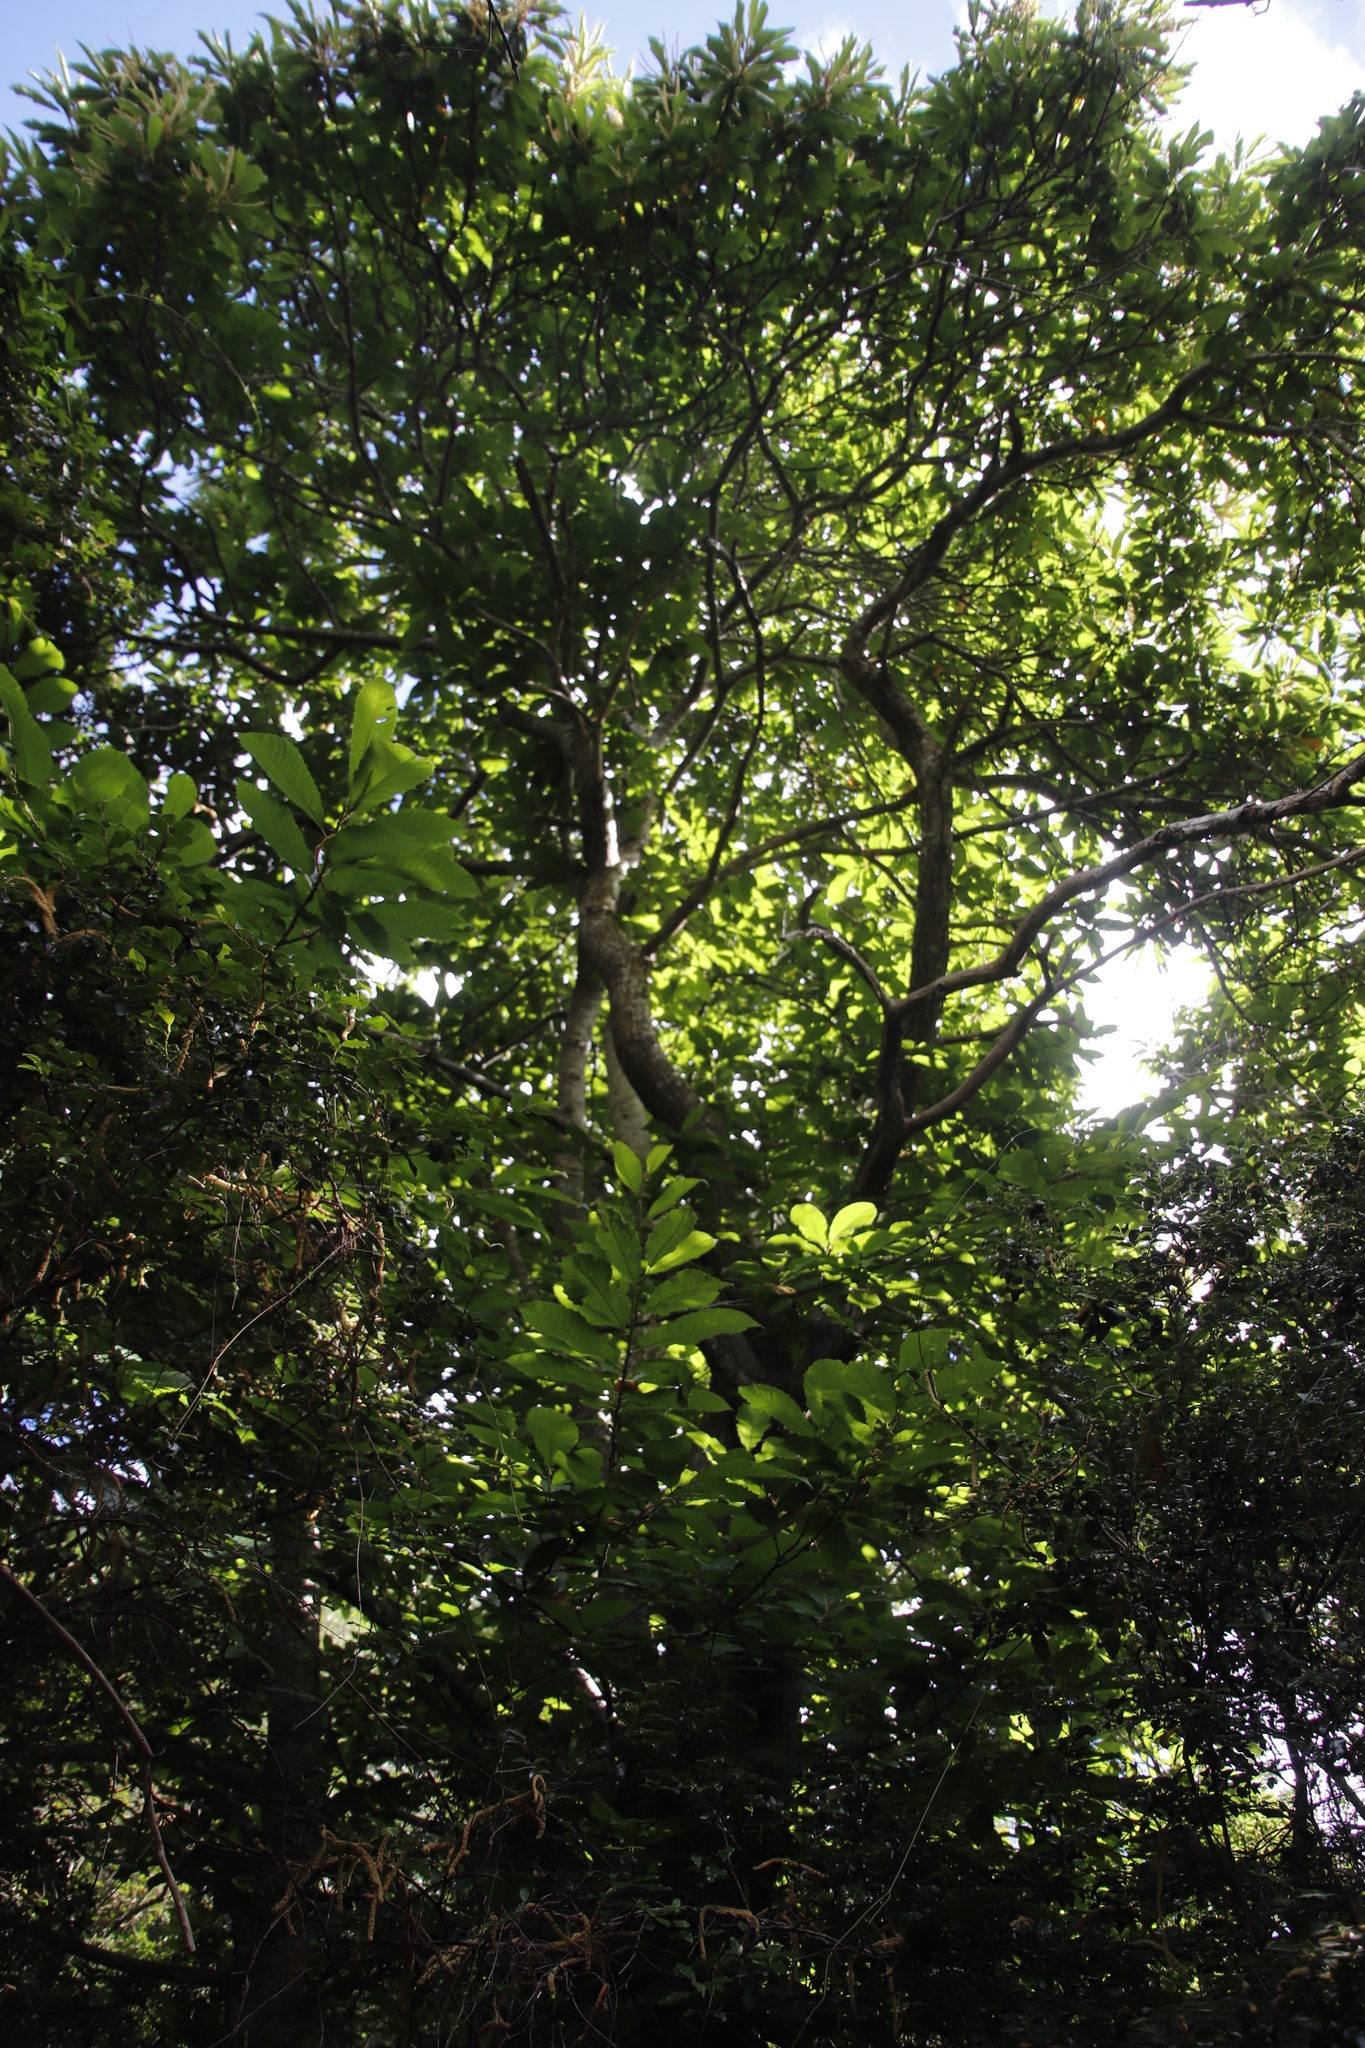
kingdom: Plantae
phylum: Tracheophyta
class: Magnoliopsida
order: Fagales
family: Fagaceae
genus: Castanea
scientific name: Castanea sativa
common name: Sweet chestnut
